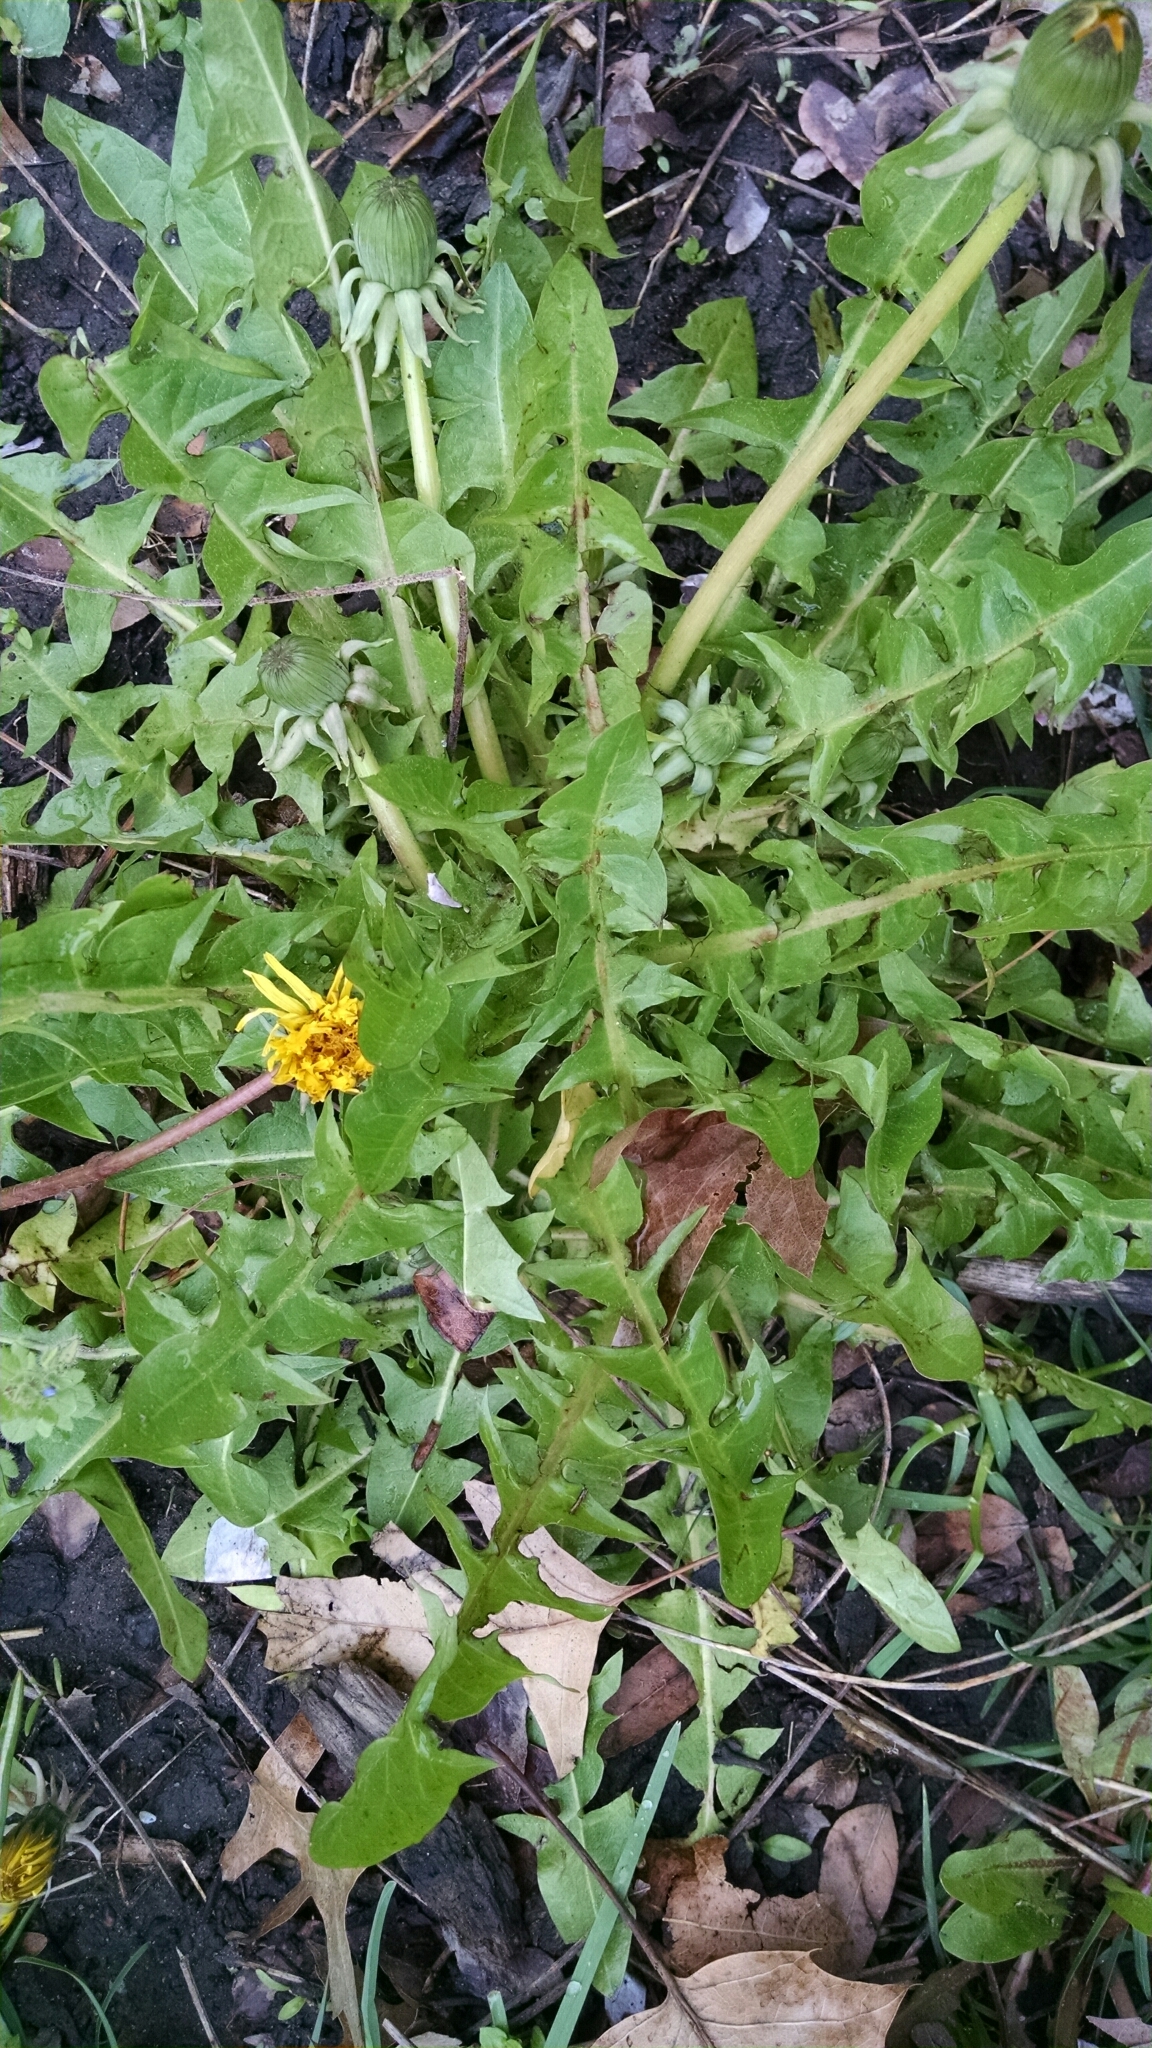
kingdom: Plantae
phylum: Tracheophyta
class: Magnoliopsida
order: Asterales
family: Asteraceae
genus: Taraxacum
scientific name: Taraxacum officinale
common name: Common dandelion
